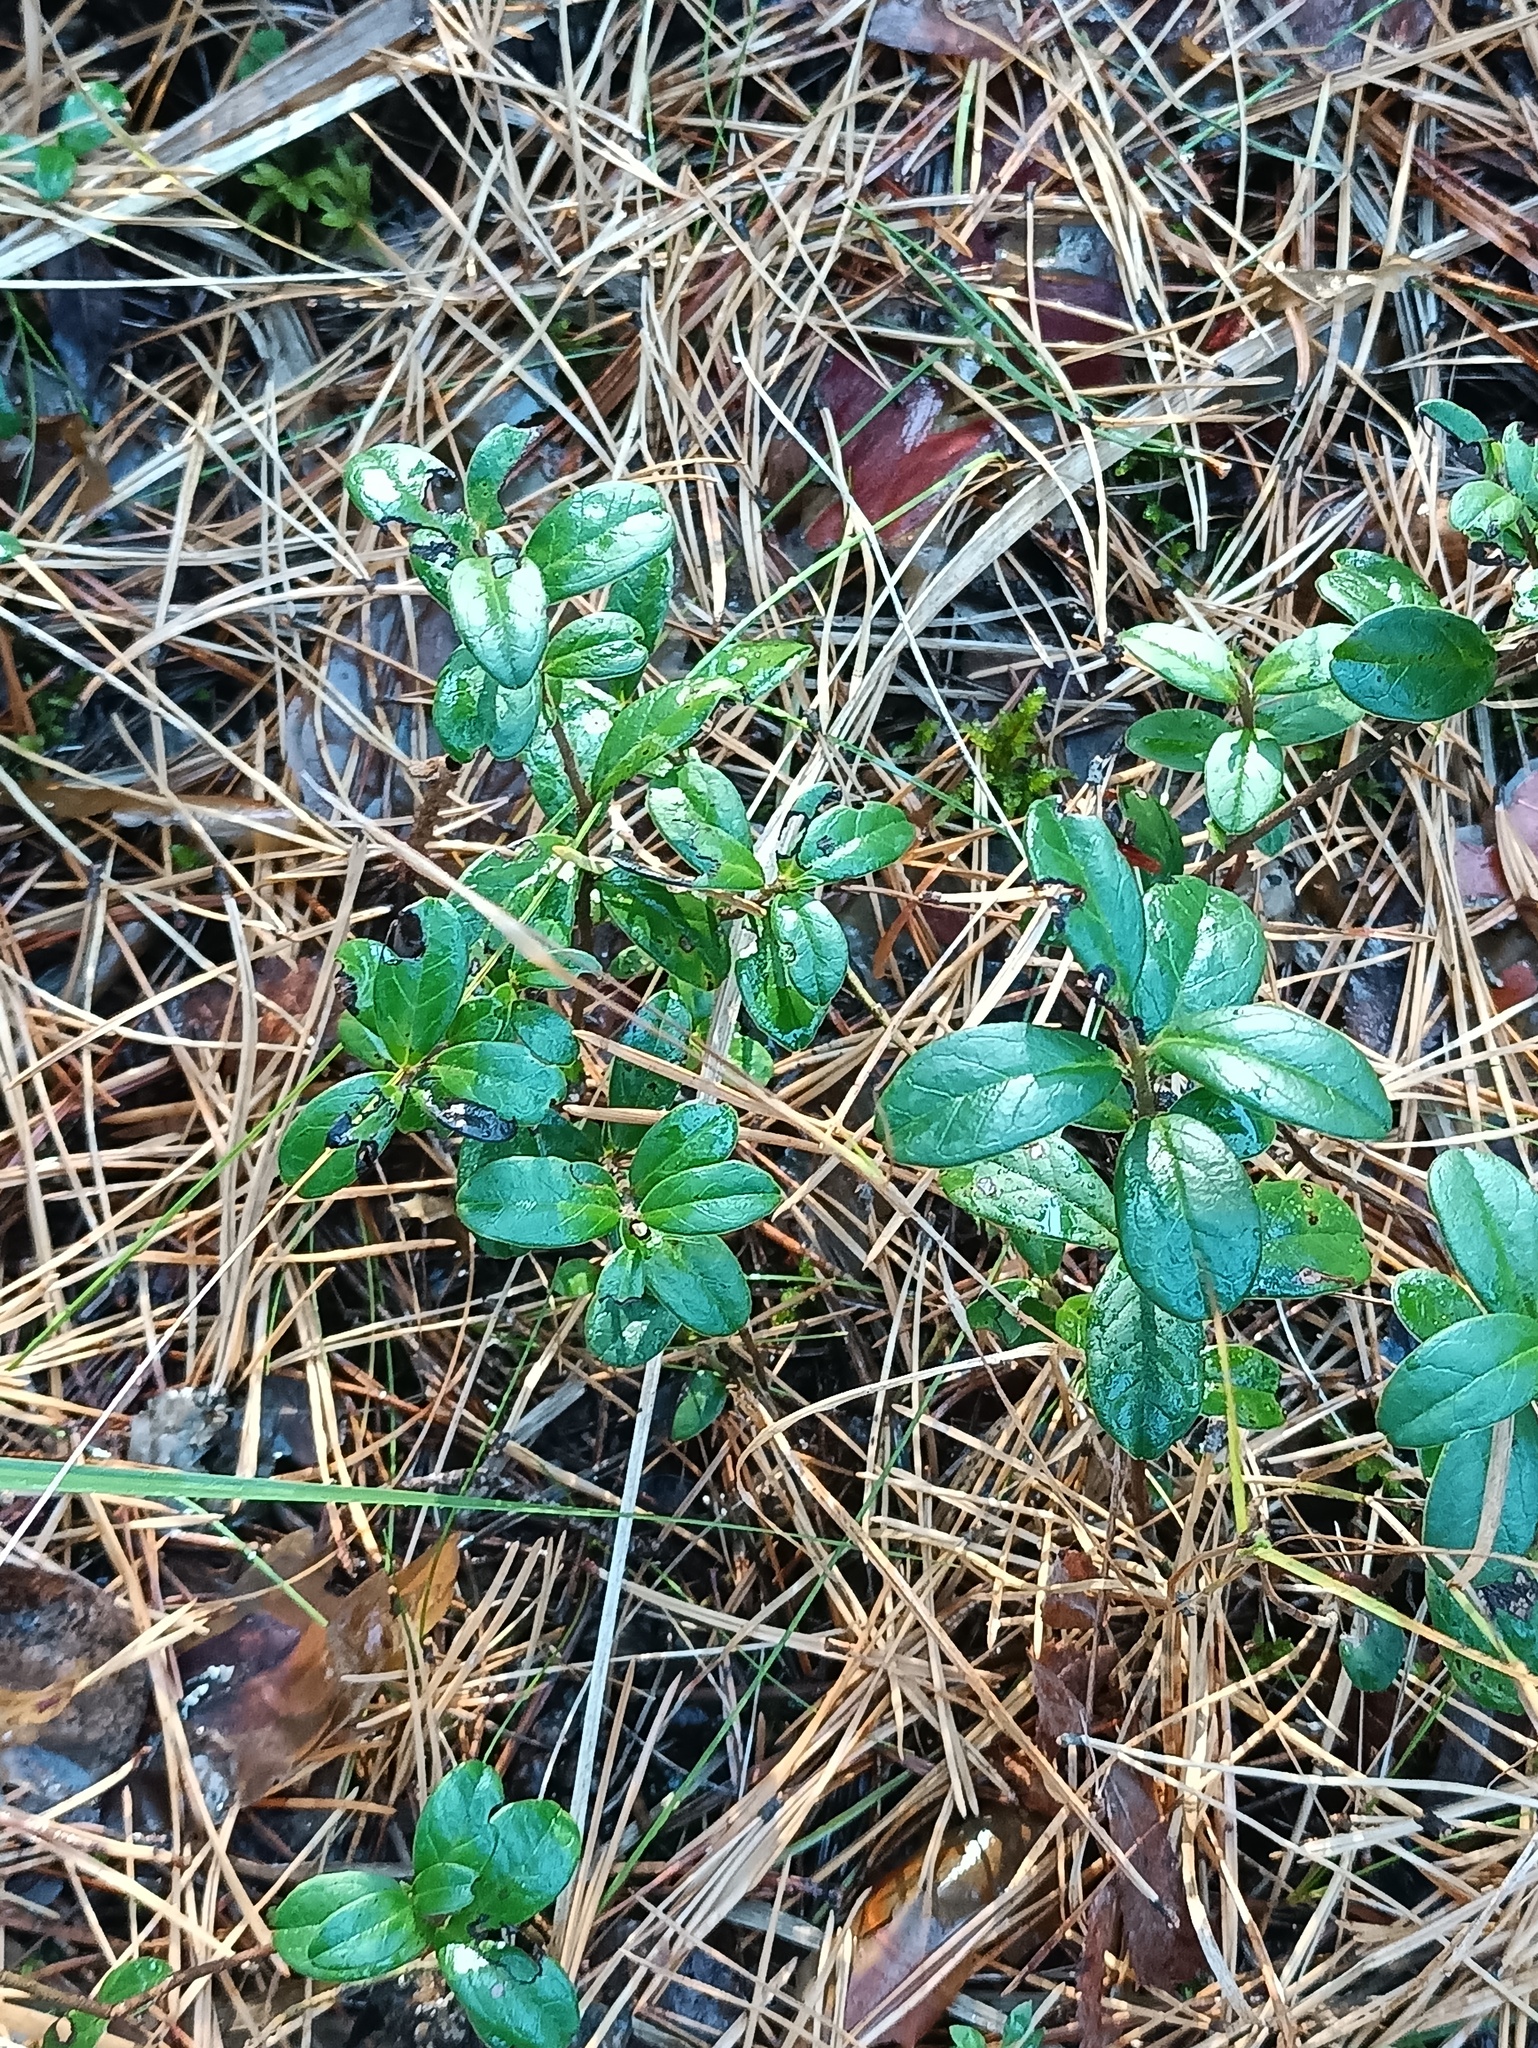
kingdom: Plantae
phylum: Tracheophyta
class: Magnoliopsida
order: Ericales
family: Ericaceae
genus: Vaccinium
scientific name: Vaccinium vitis-idaea
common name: Cowberry
